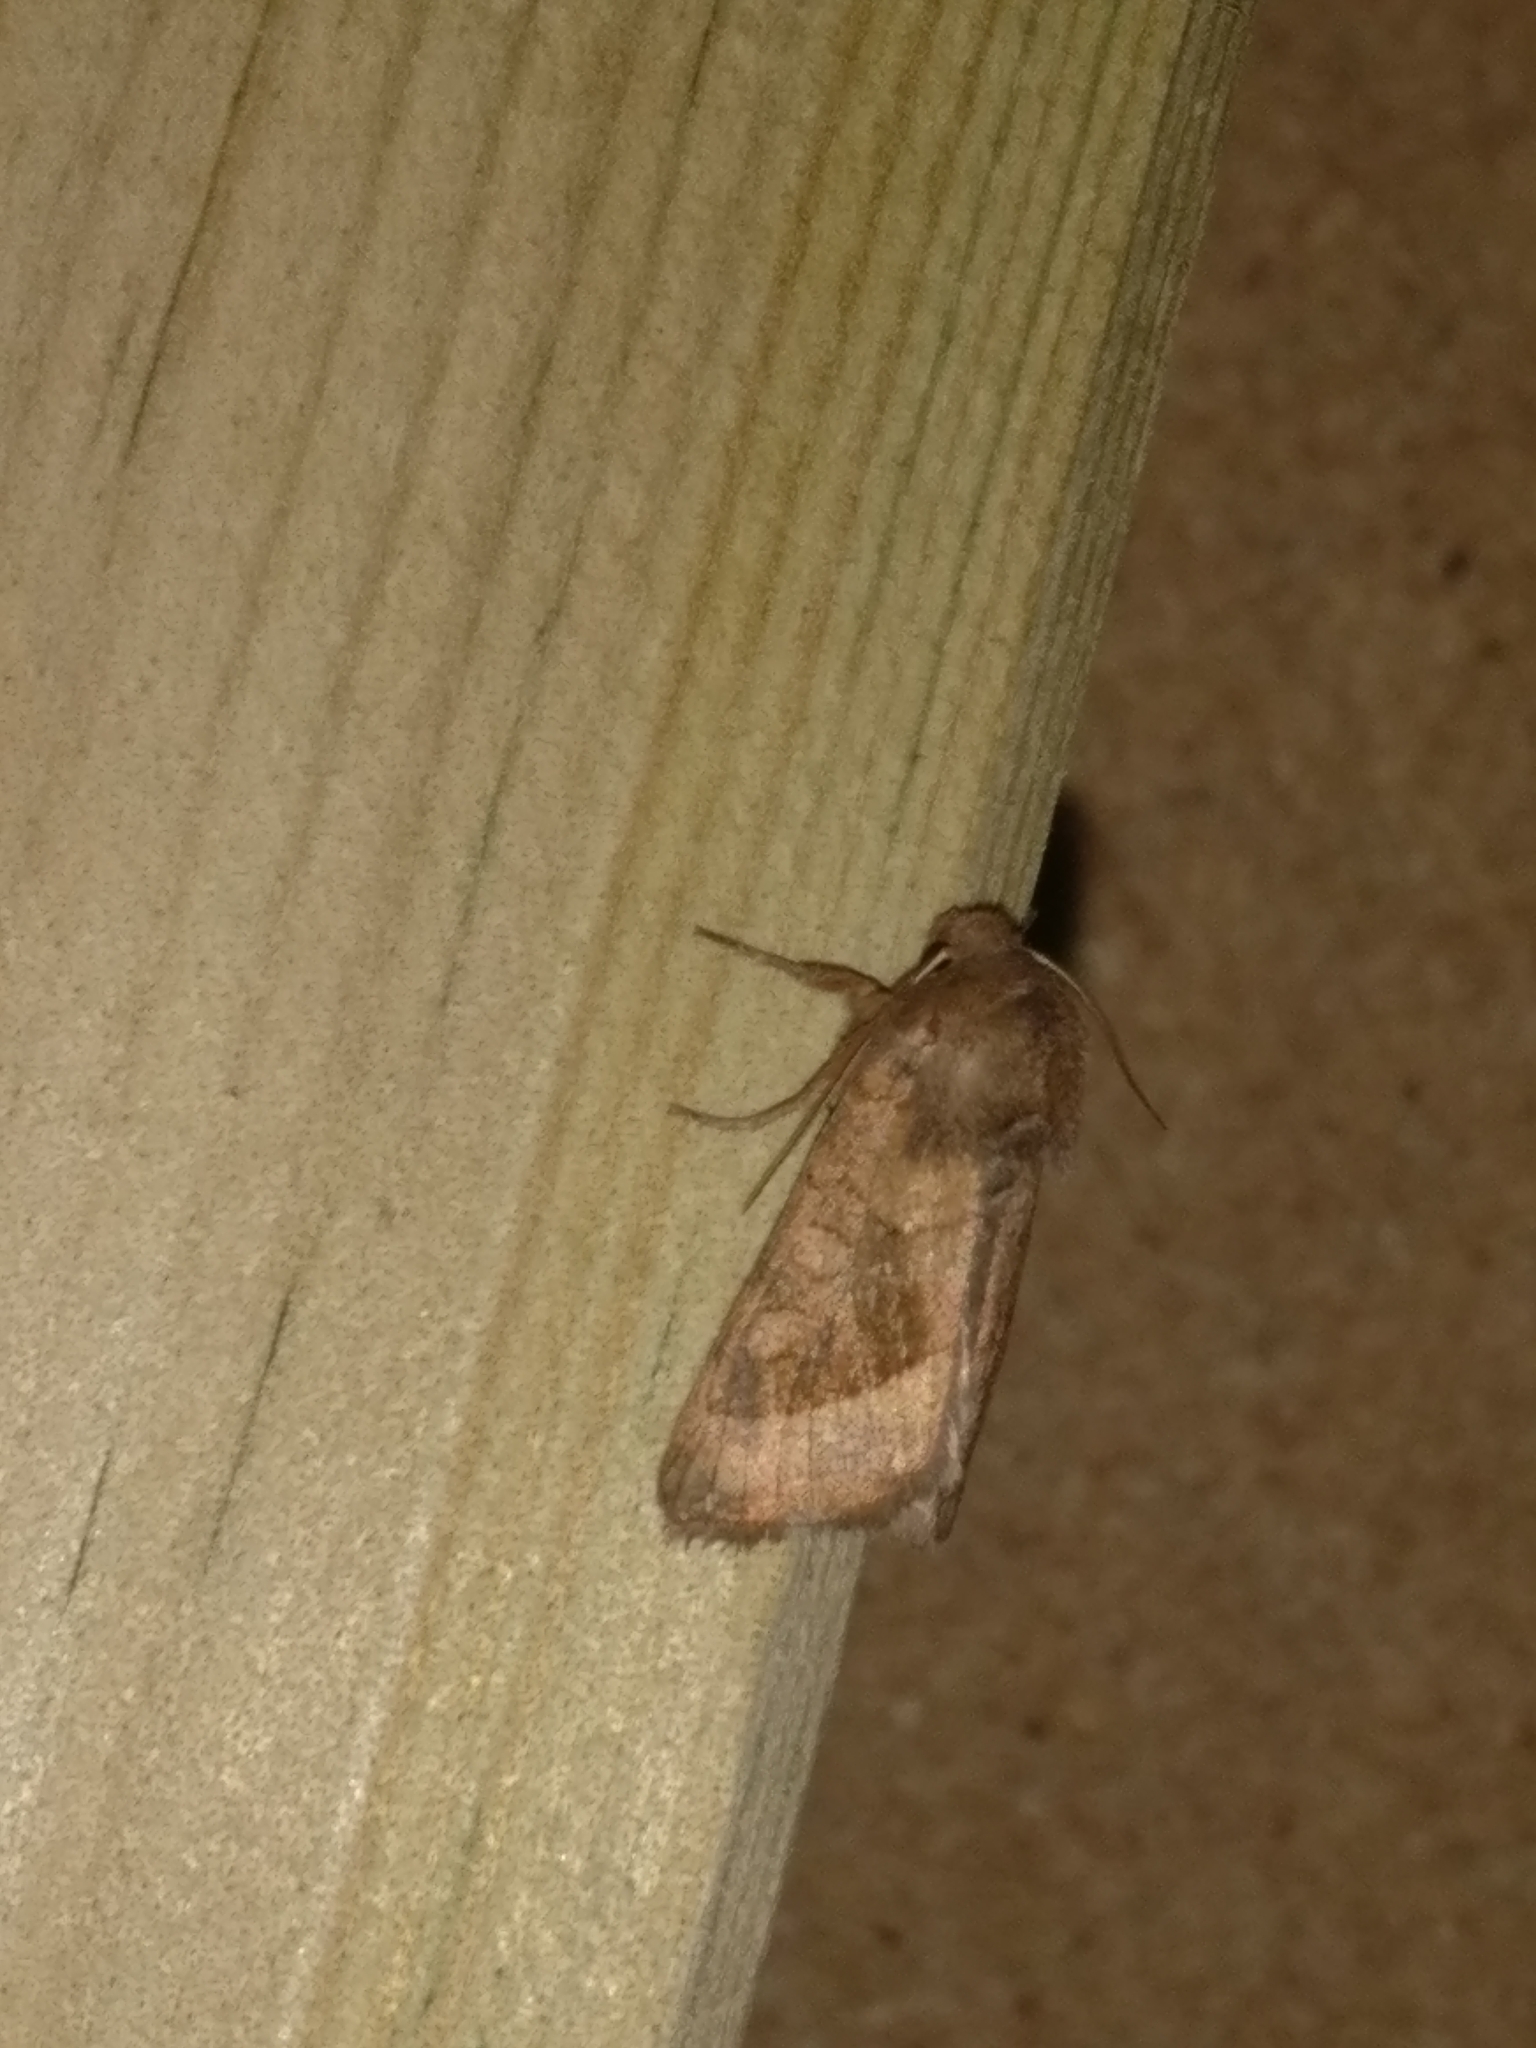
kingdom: Animalia
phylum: Arthropoda
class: Insecta
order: Lepidoptera
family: Noctuidae
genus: Hydraecia
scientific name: Hydraecia micacea
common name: Rosy rustic
